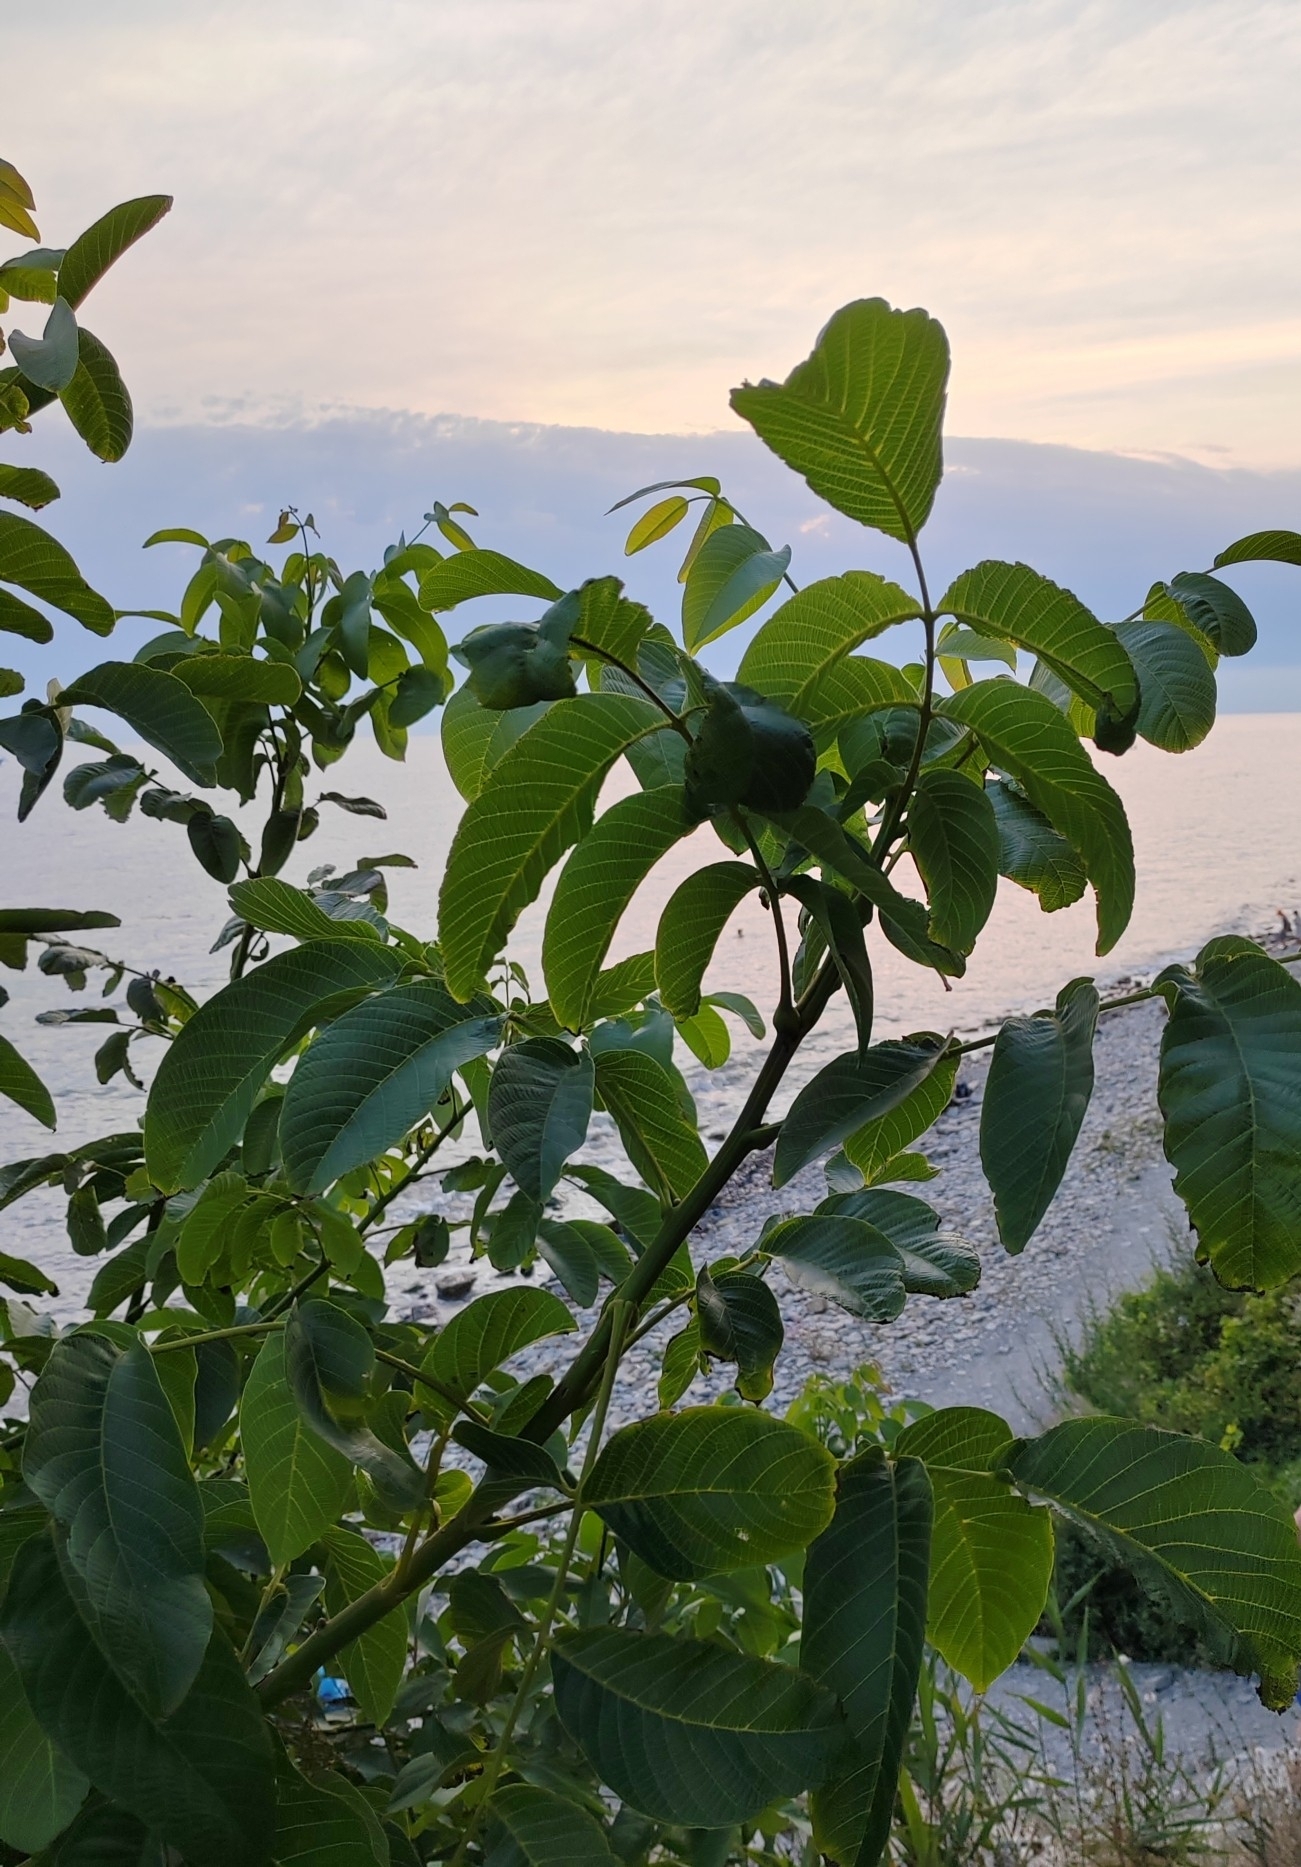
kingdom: Plantae
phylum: Tracheophyta
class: Magnoliopsida
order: Fagales
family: Juglandaceae
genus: Juglans
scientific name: Juglans regia
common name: Walnut
